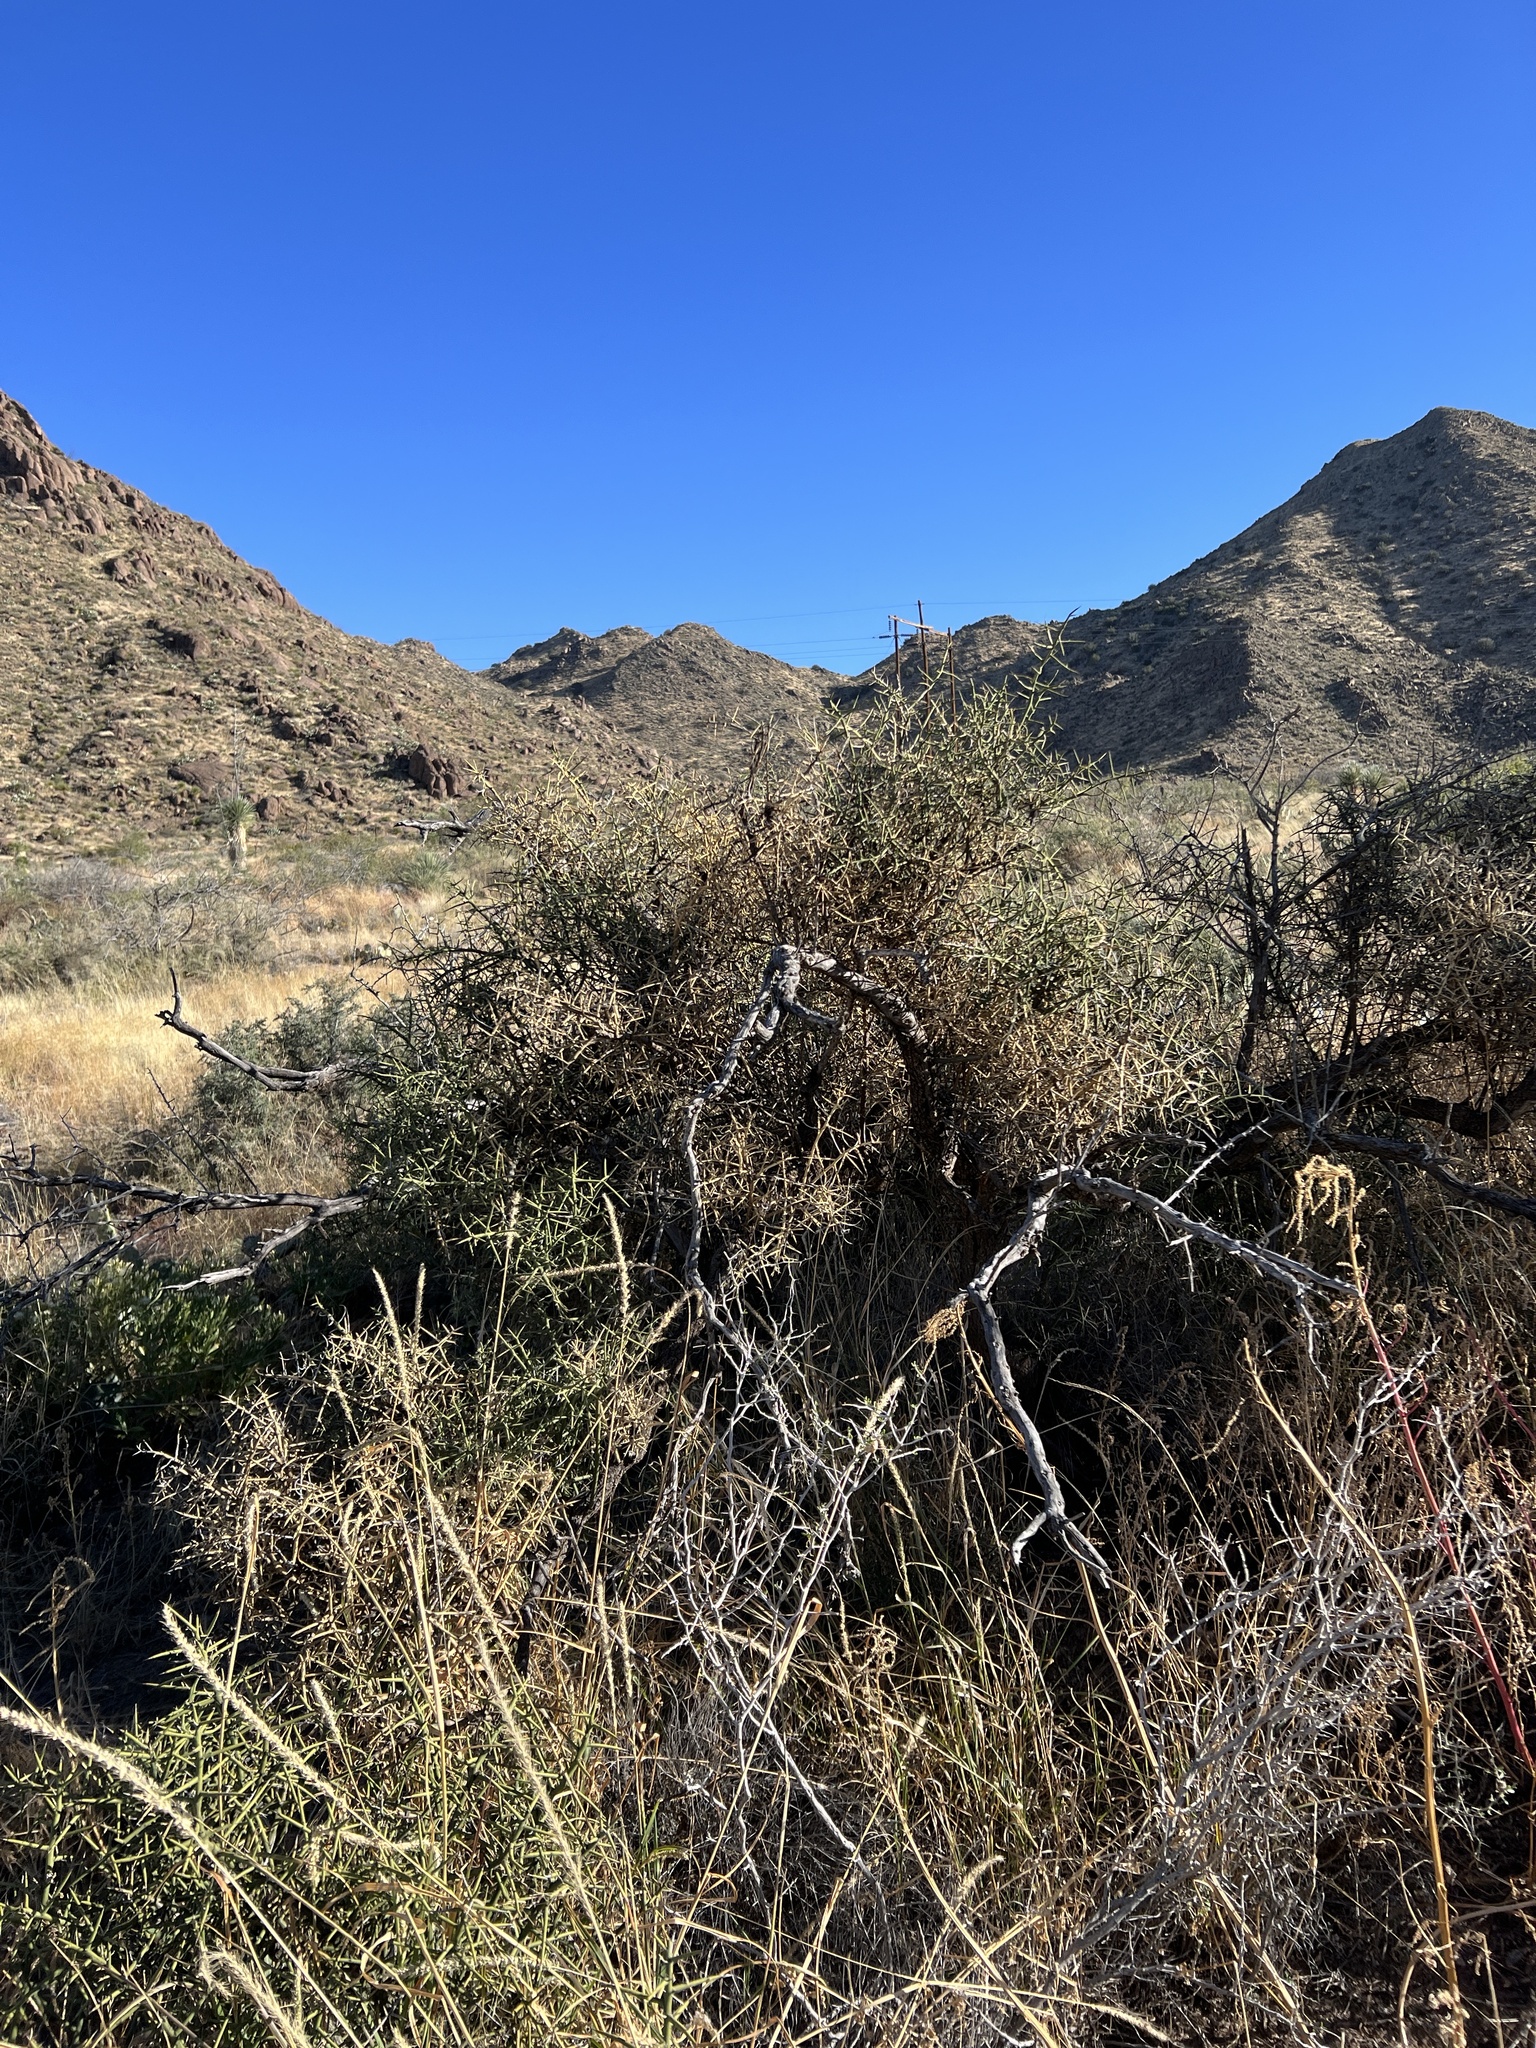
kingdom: Plantae
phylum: Tracheophyta
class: Magnoliopsida
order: Brassicales
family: Koeberliniaceae
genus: Koeberlinia
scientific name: Koeberlinia spinosa
